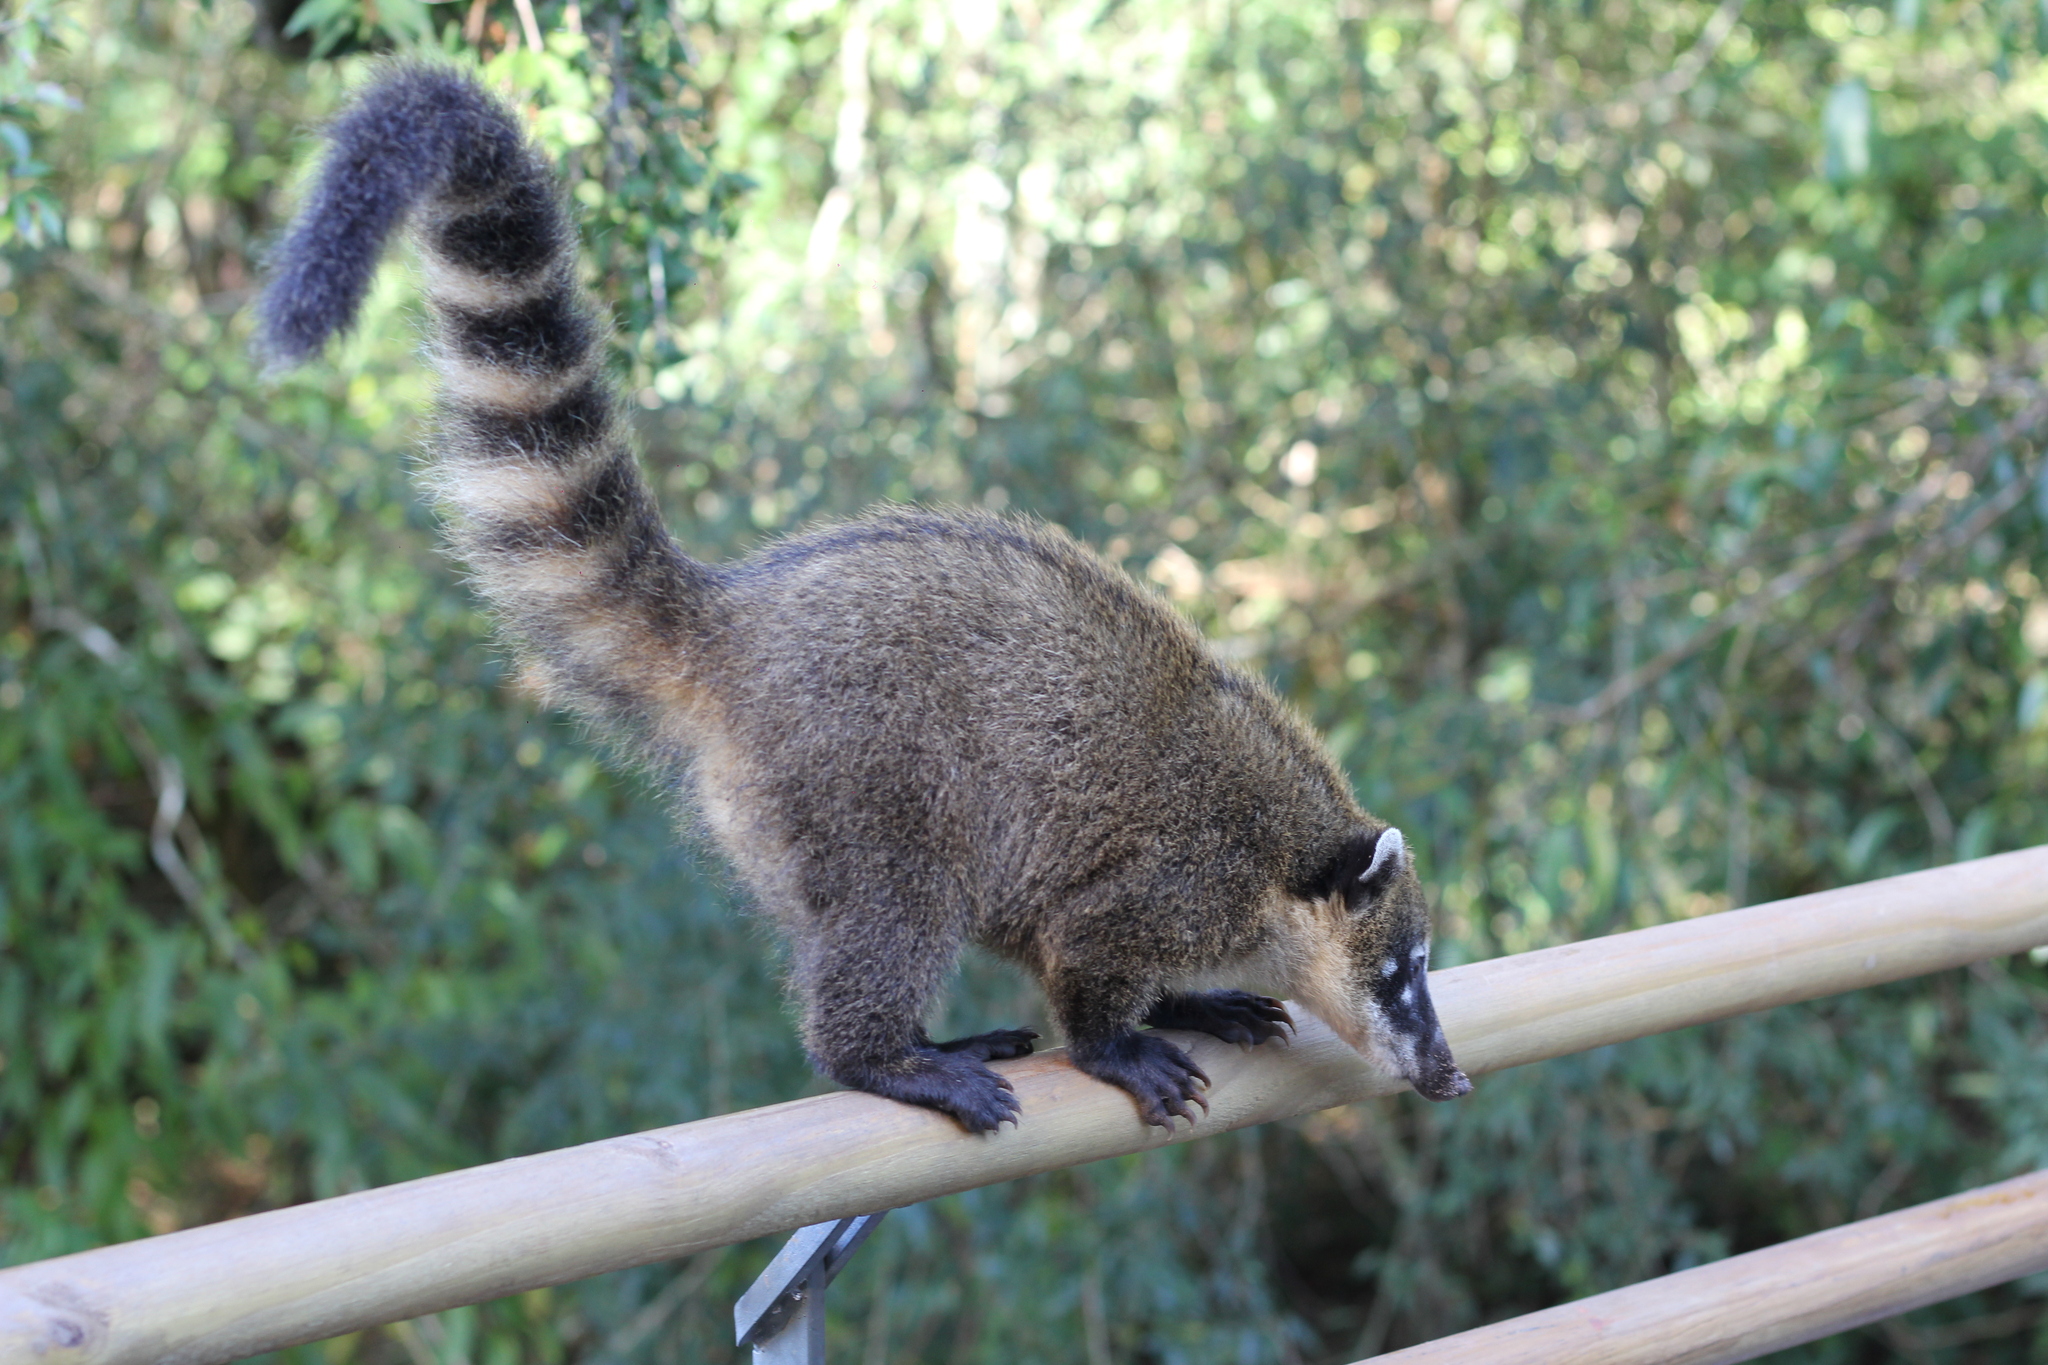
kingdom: Animalia
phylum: Chordata
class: Mammalia
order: Carnivora
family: Procyonidae
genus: Nasua
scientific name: Nasua nasua
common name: South american coati
